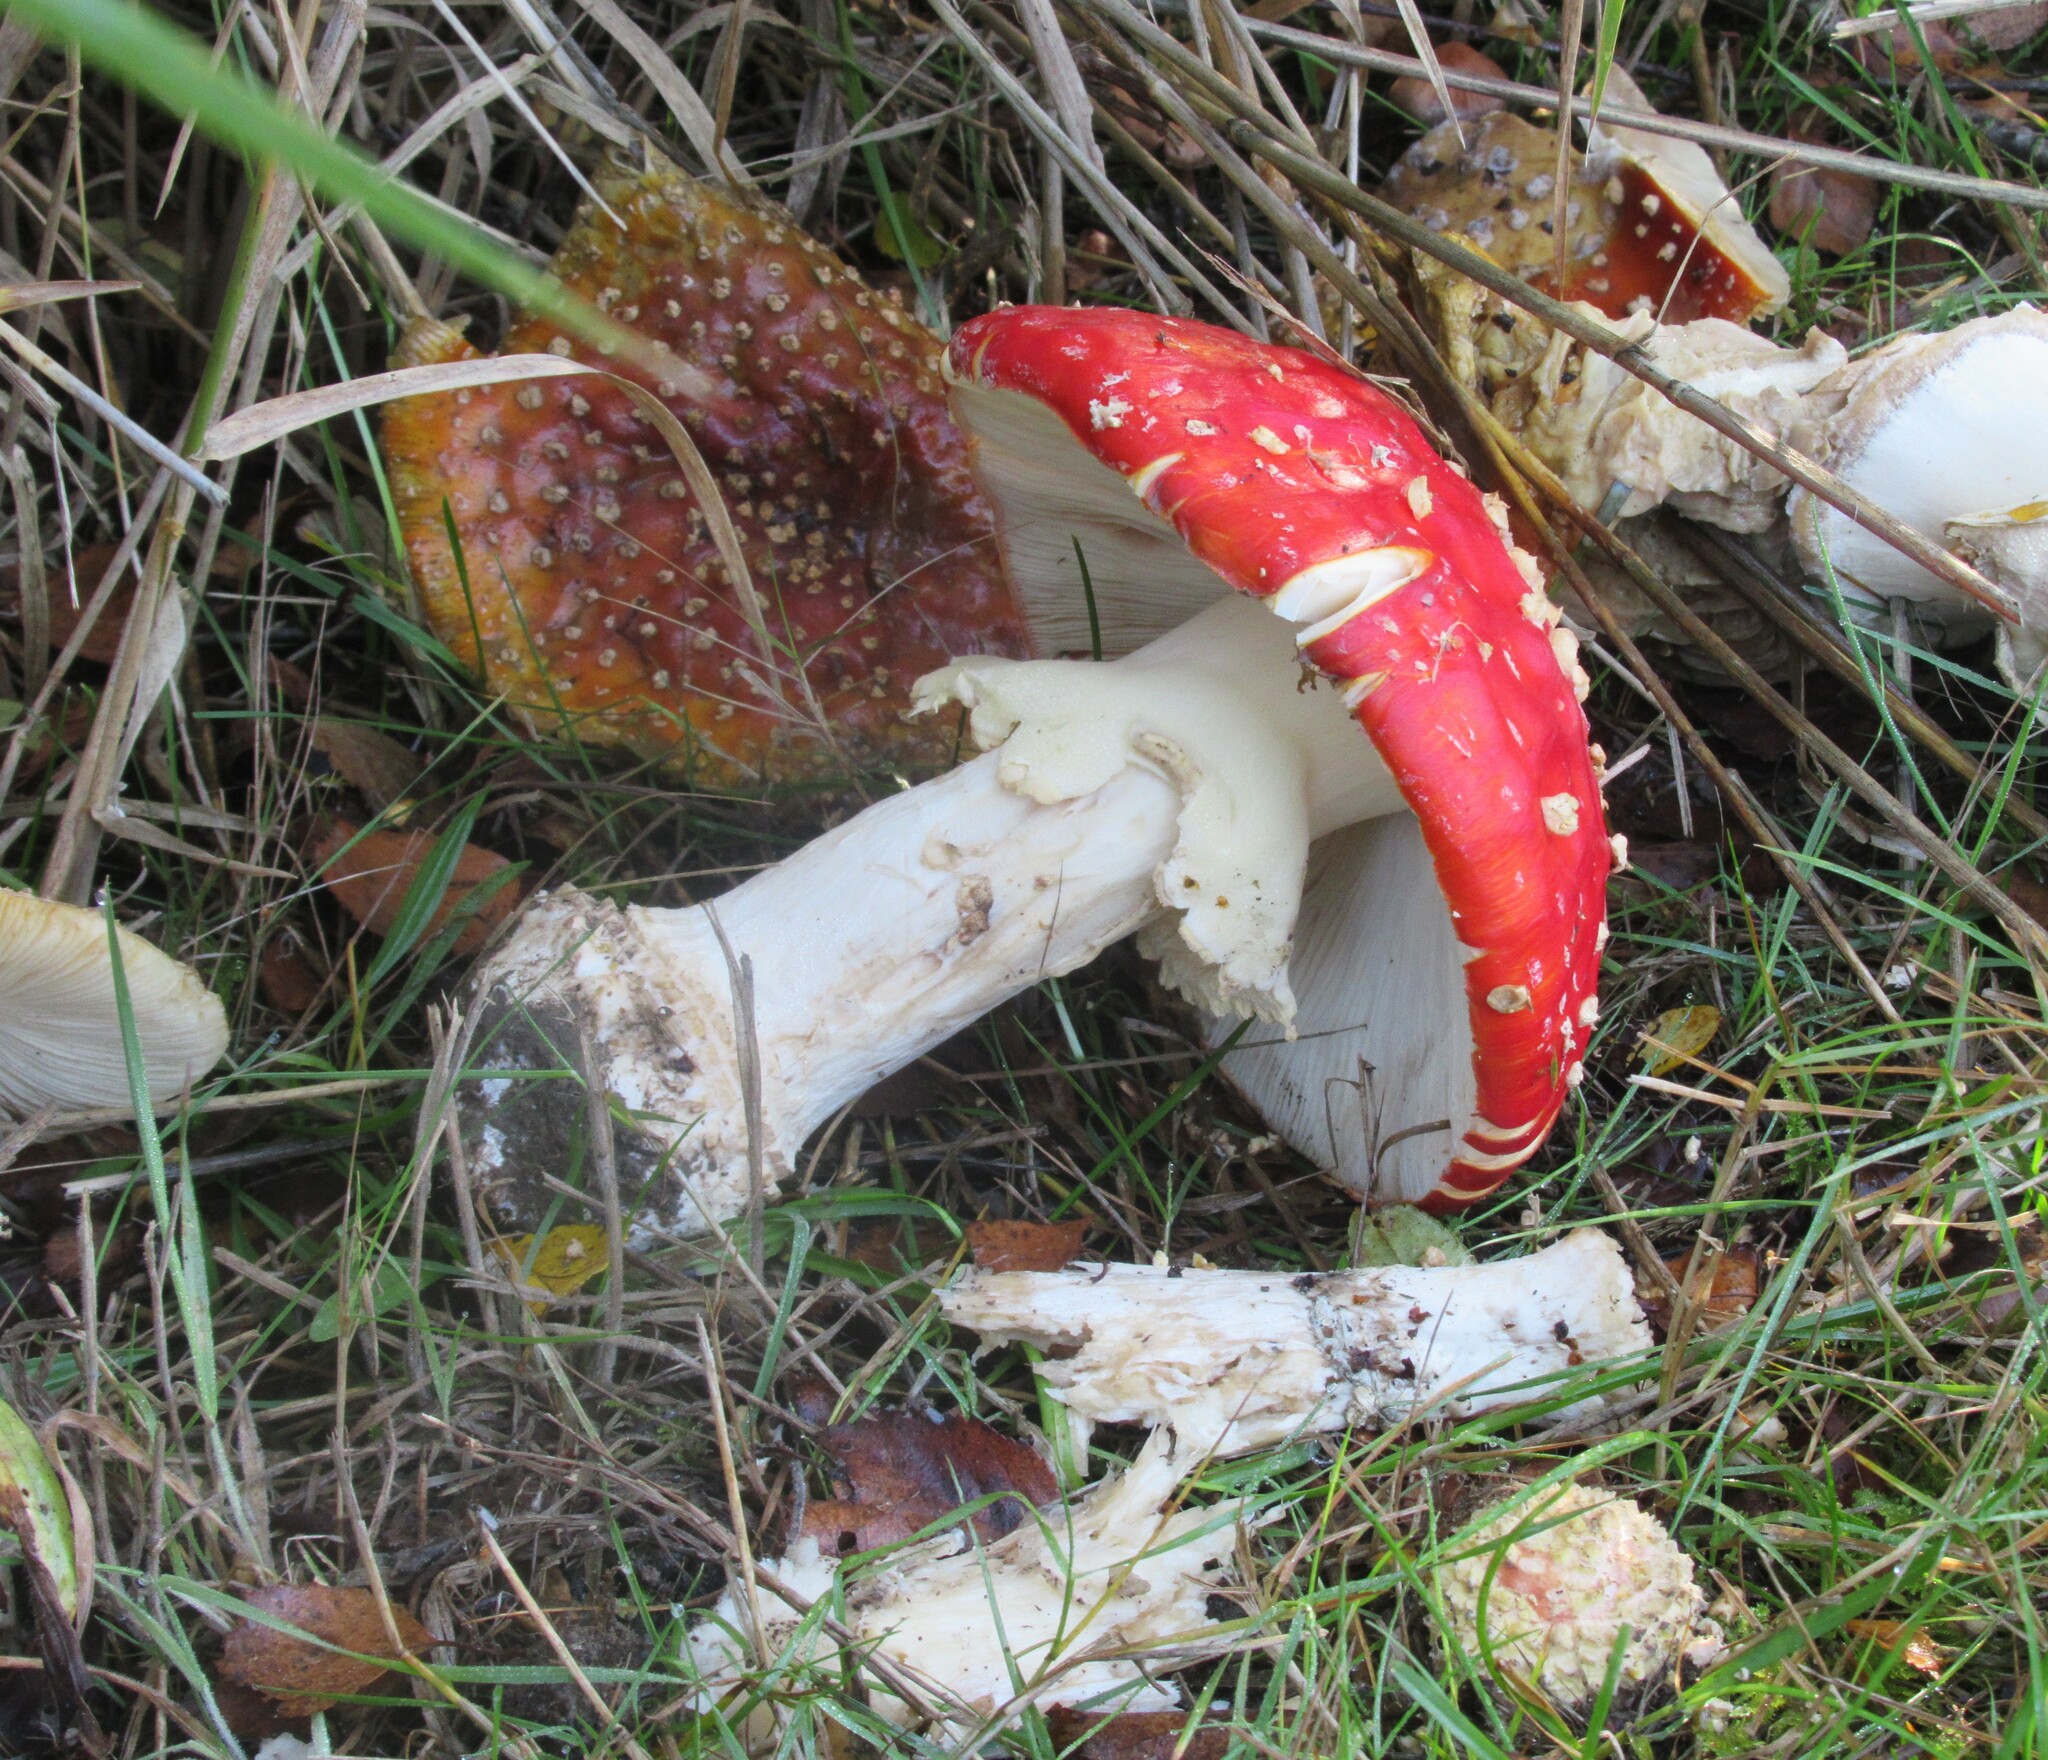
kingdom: Fungi
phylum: Basidiomycota
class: Agaricomycetes
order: Agaricales
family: Amanitaceae
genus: Amanita
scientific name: Amanita muscaria
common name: Fly agaric
